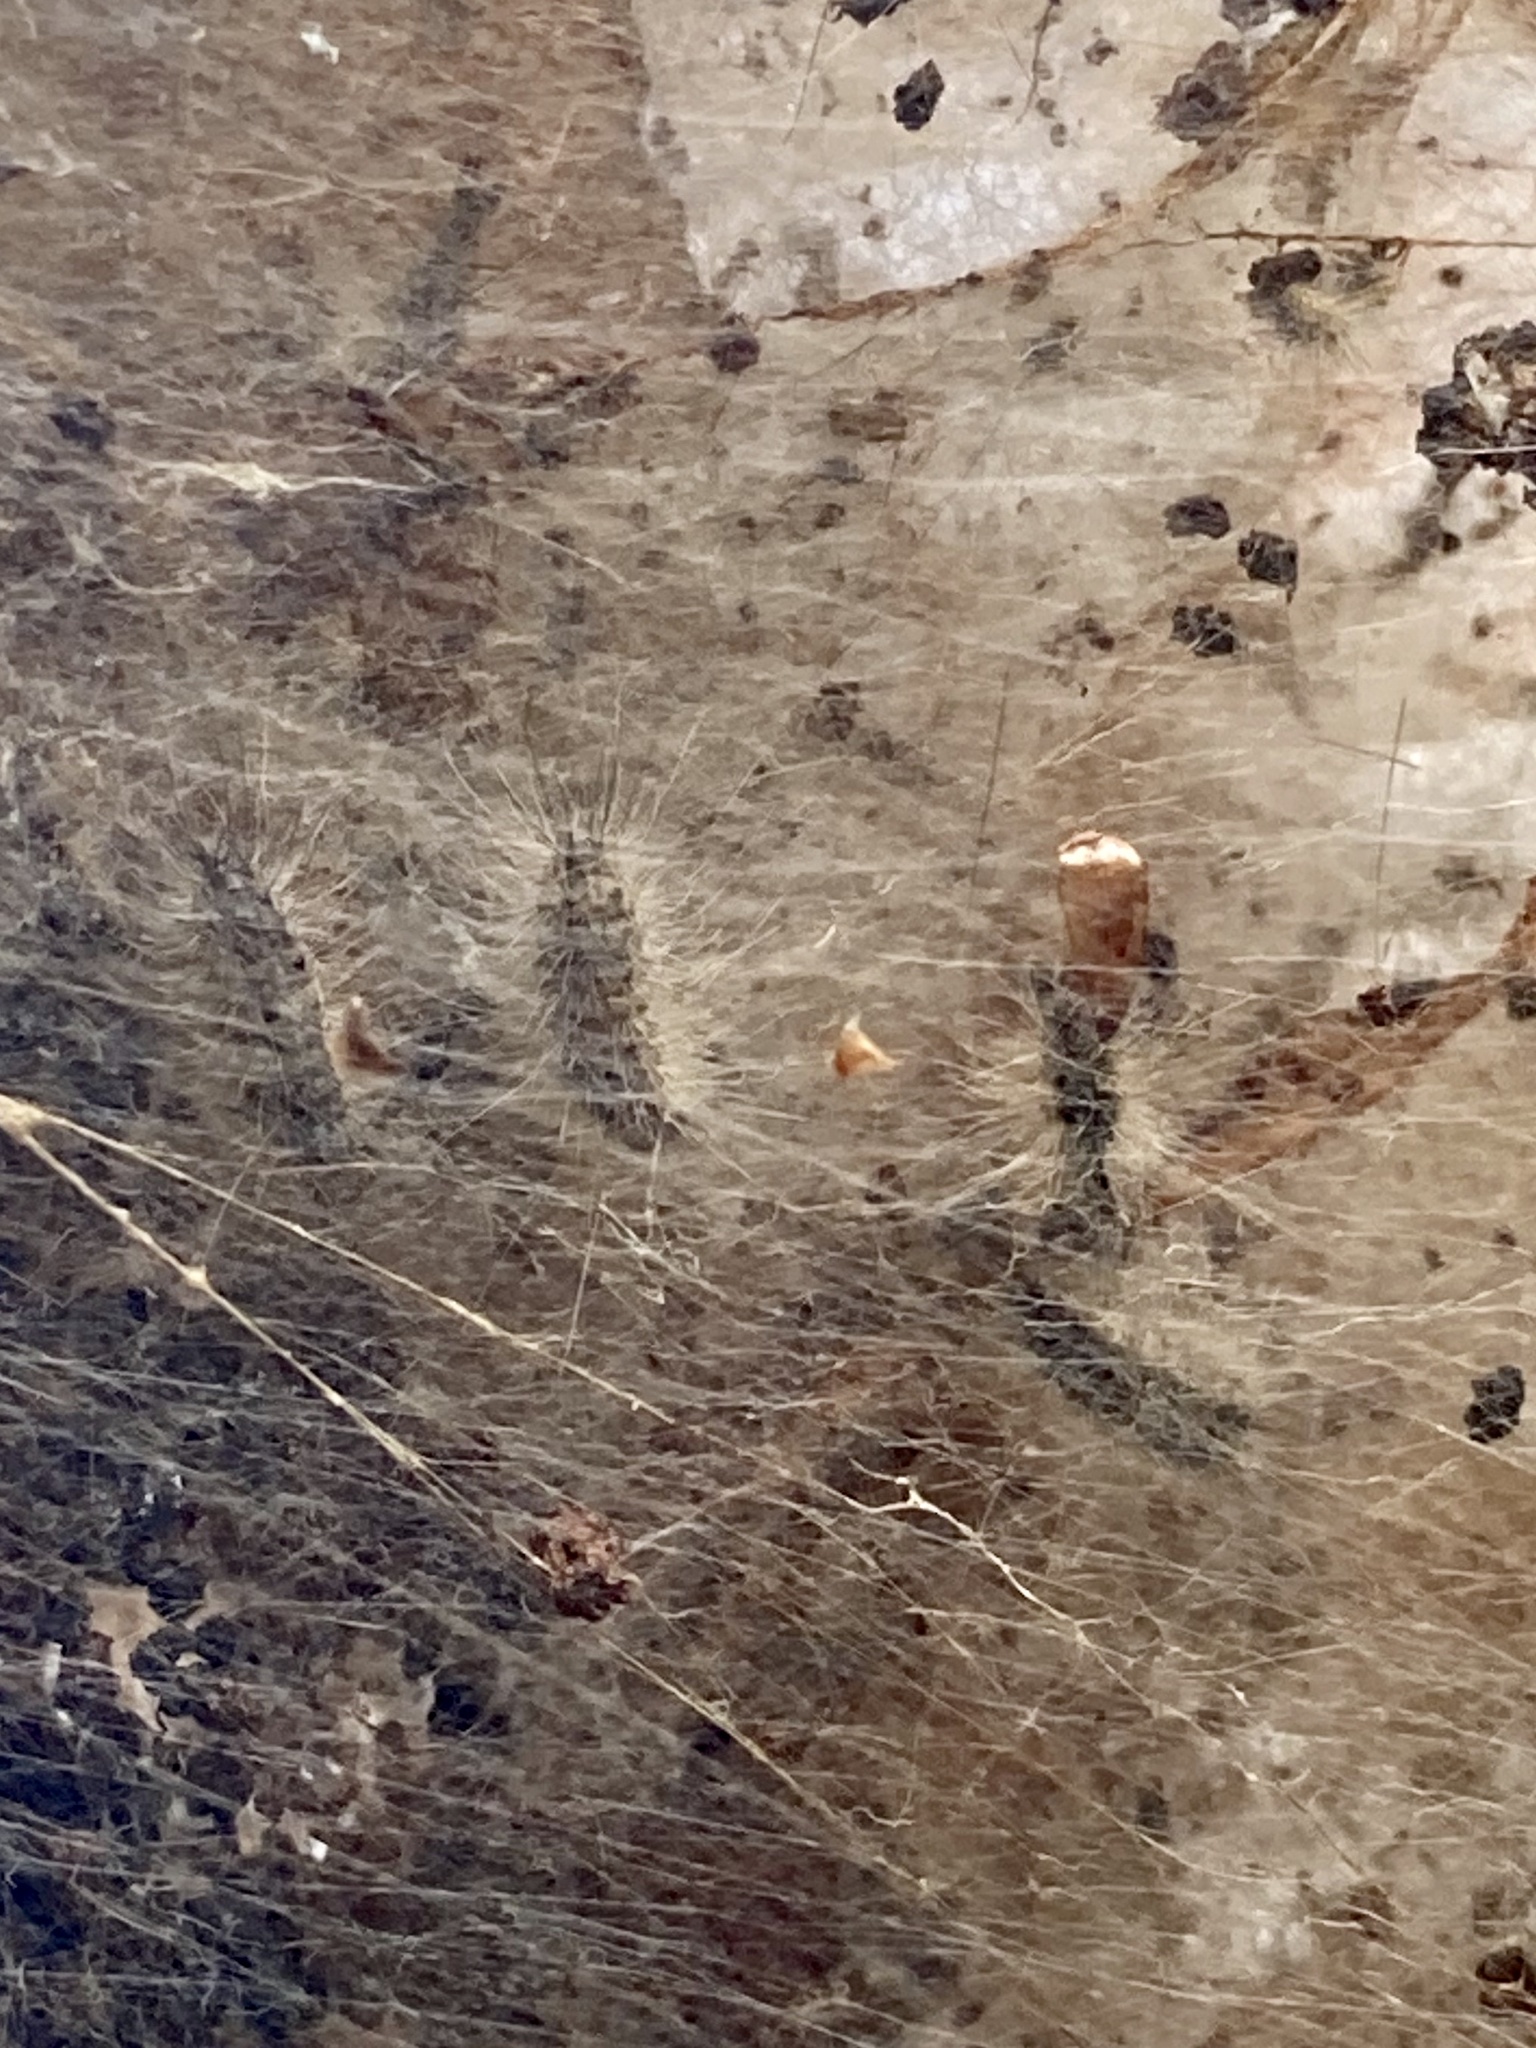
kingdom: Animalia
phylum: Arthropoda
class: Insecta
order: Lepidoptera
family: Erebidae
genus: Hyphantria
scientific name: Hyphantria cunea
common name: American white moth
